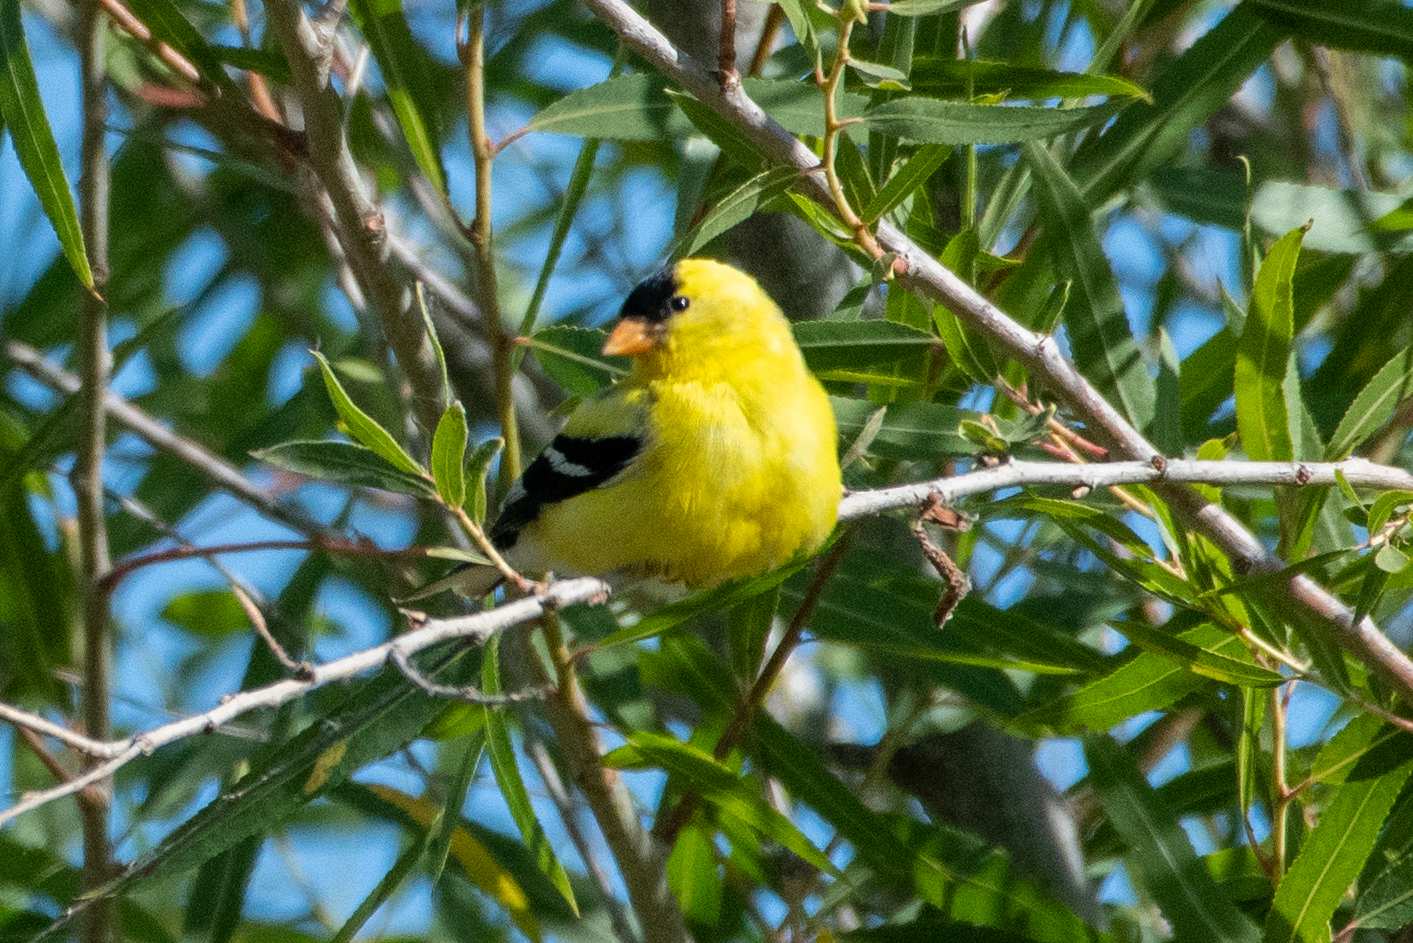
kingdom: Animalia
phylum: Chordata
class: Aves
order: Passeriformes
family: Fringillidae
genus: Spinus
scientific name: Spinus tristis
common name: American goldfinch
